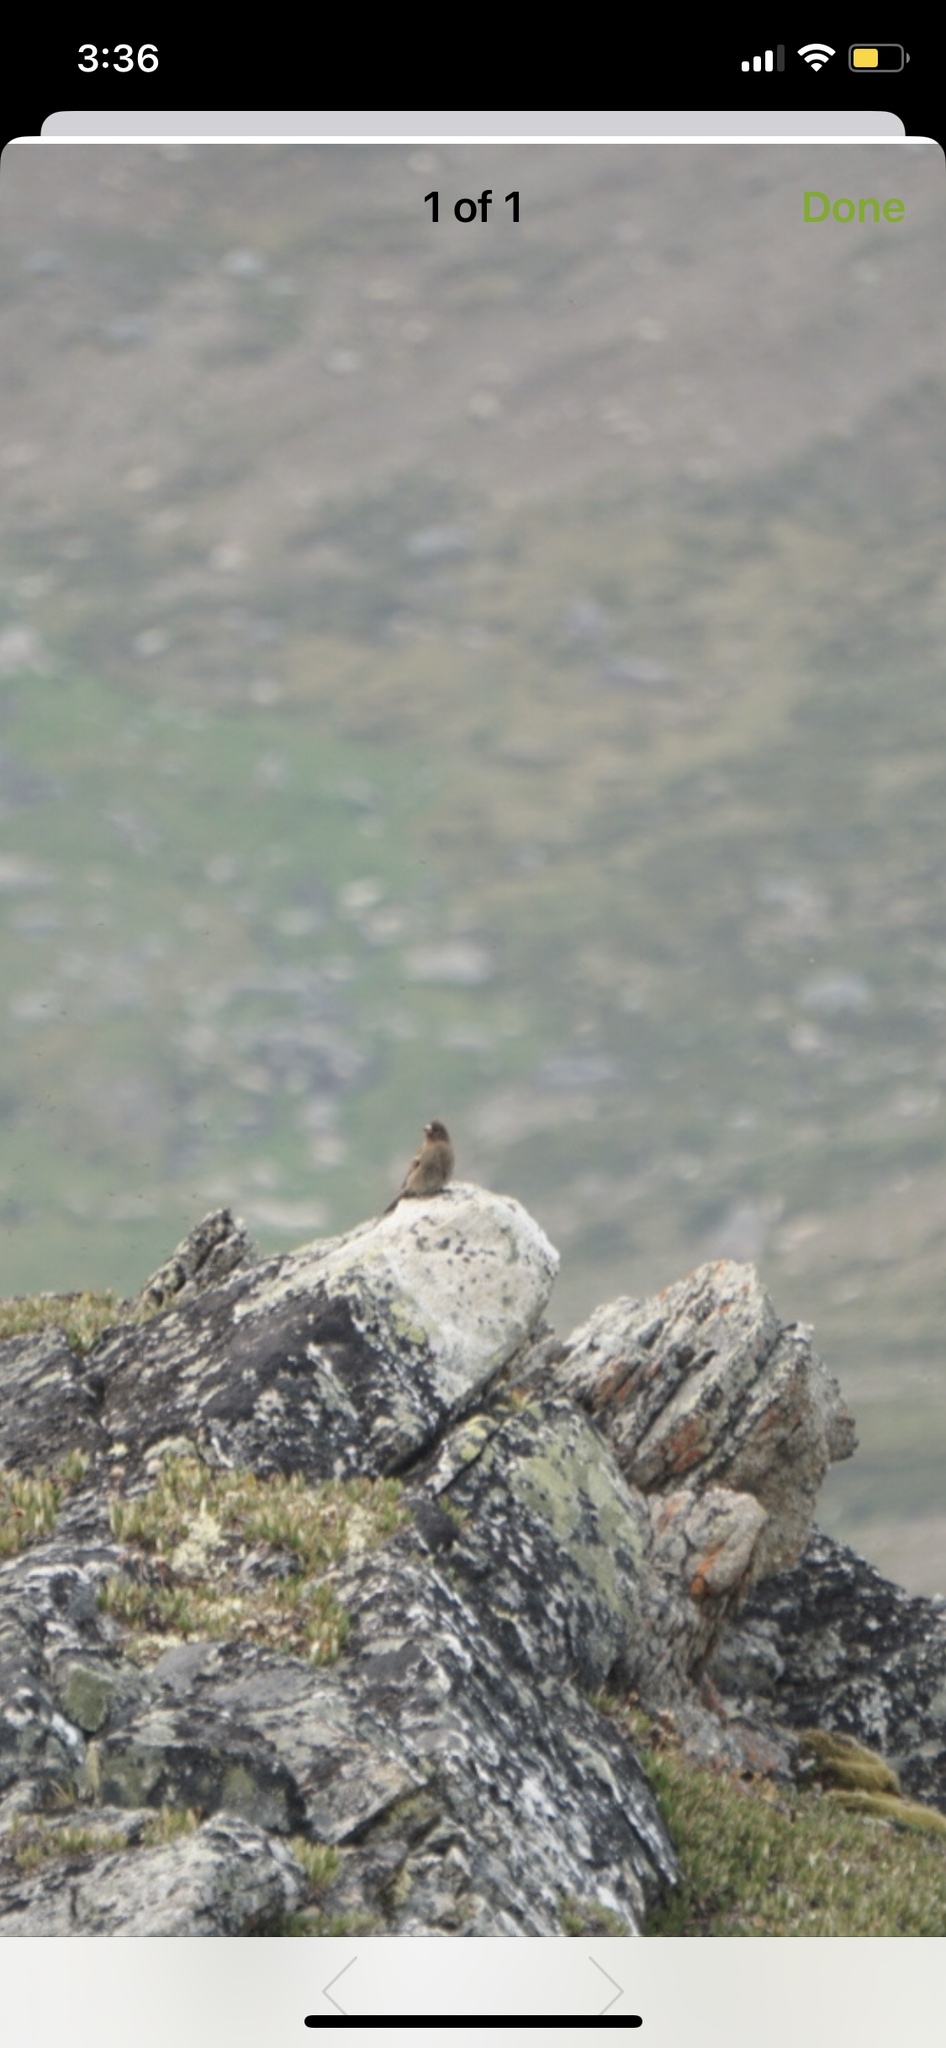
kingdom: Animalia
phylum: Chordata
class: Aves
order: Passeriformes
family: Fringillidae
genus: Leucosticte
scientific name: Leucosticte tephrocotis
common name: Gray-crowned rosy-finch
